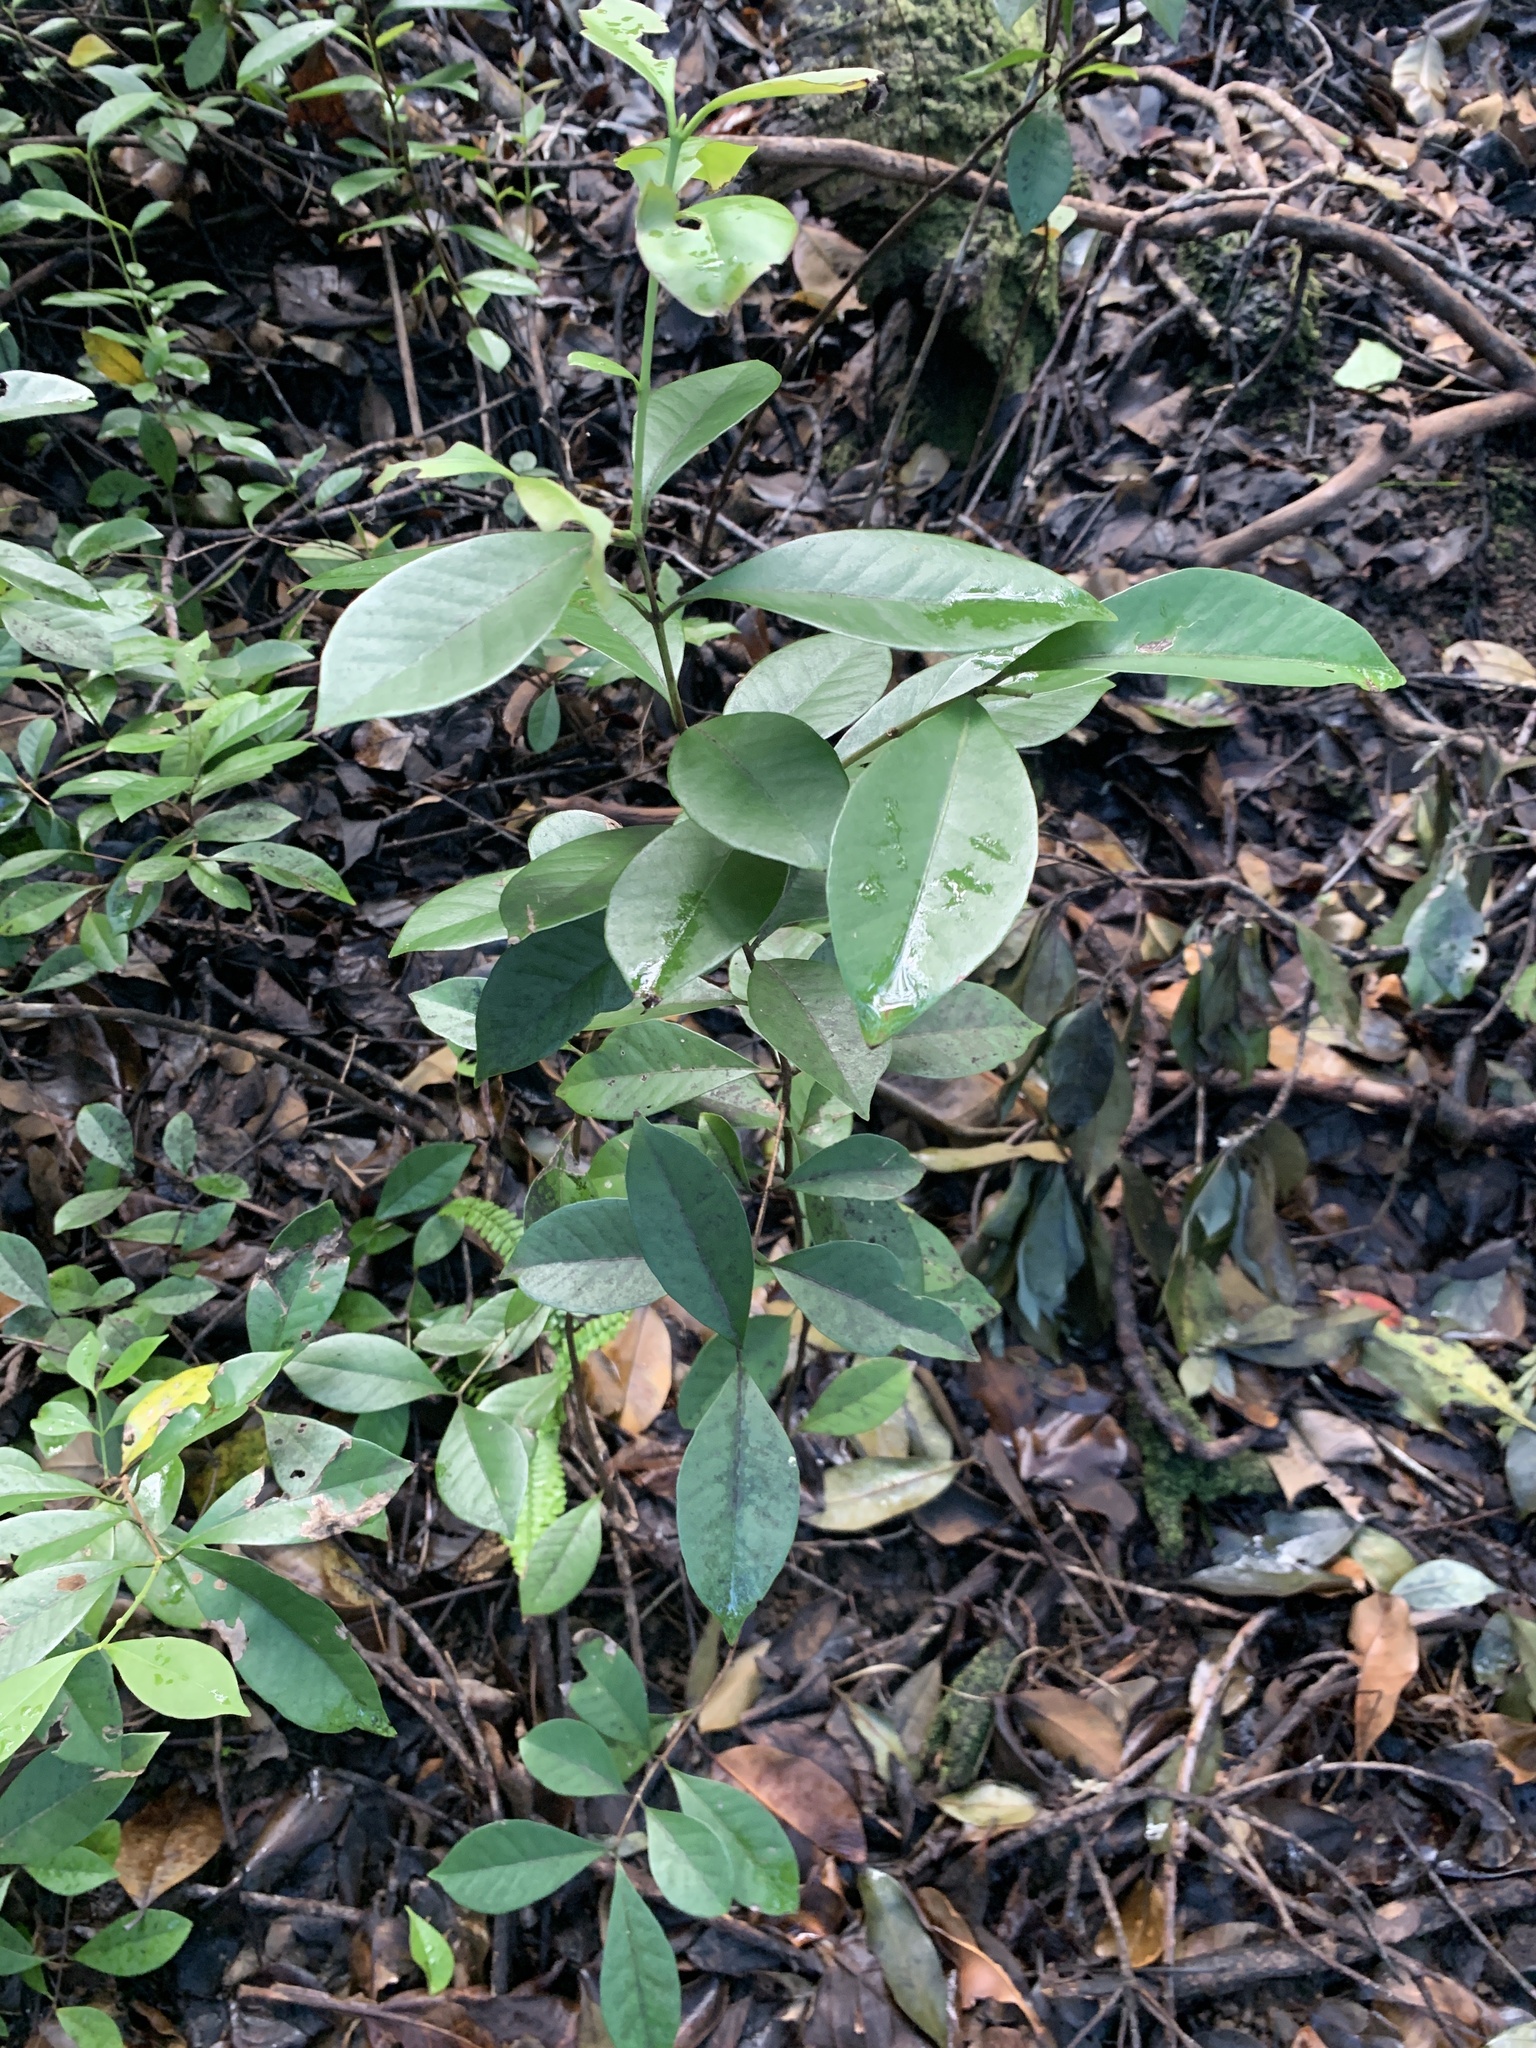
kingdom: Plantae
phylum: Tracheophyta
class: Magnoliopsida
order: Myrtales
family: Myrtaceae
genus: Psidium
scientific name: Psidium cattleianum
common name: Strawberry guava
